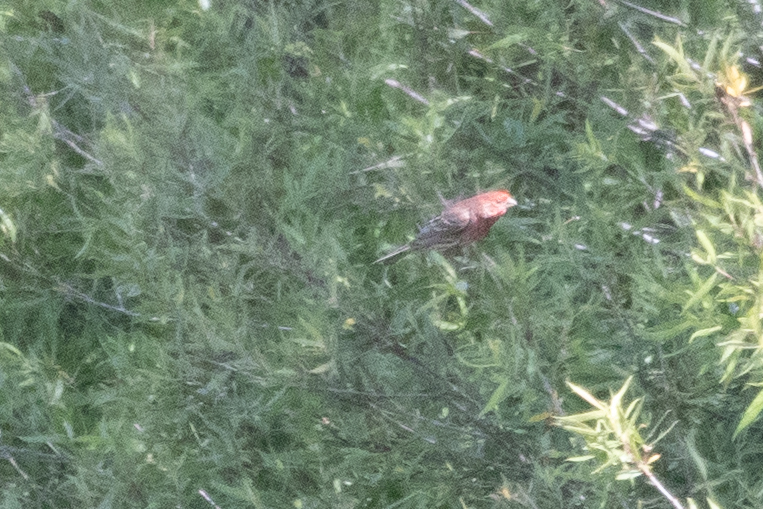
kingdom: Animalia
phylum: Chordata
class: Aves
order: Passeriformes
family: Fringillidae
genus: Haemorhous
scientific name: Haemorhous mexicanus
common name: House finch
